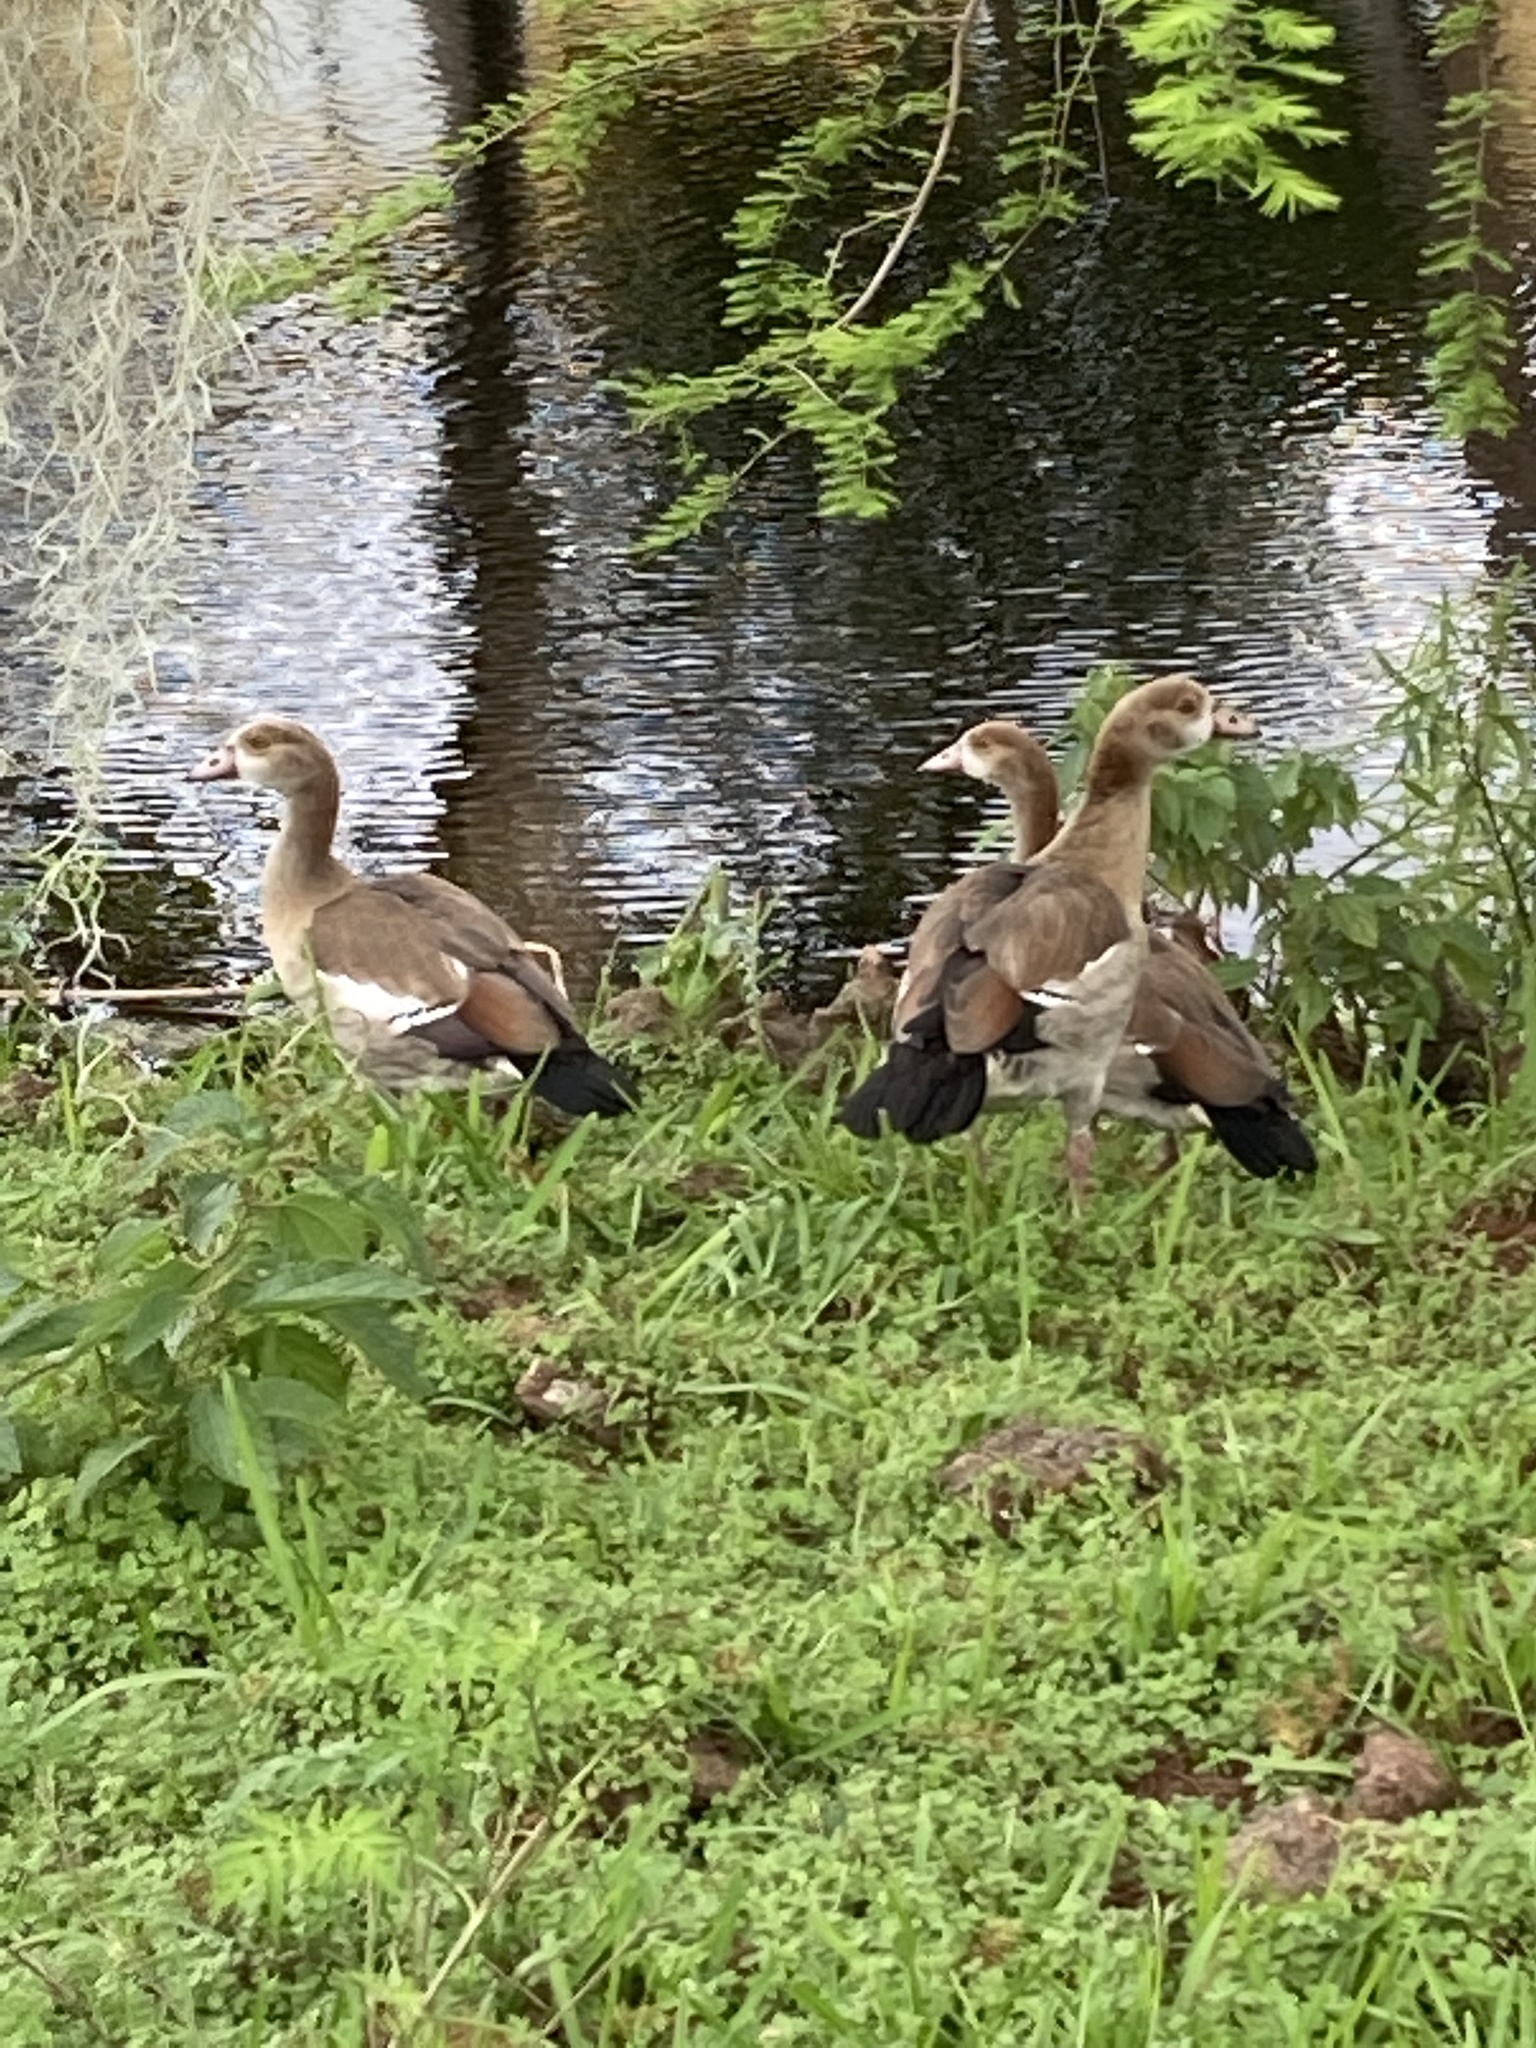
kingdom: Animalia
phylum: Chordata
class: Aves
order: Anseriformes
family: Anatidae
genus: Alopochen
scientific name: Alopochen aegyptiaca
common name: Egyptian goose
